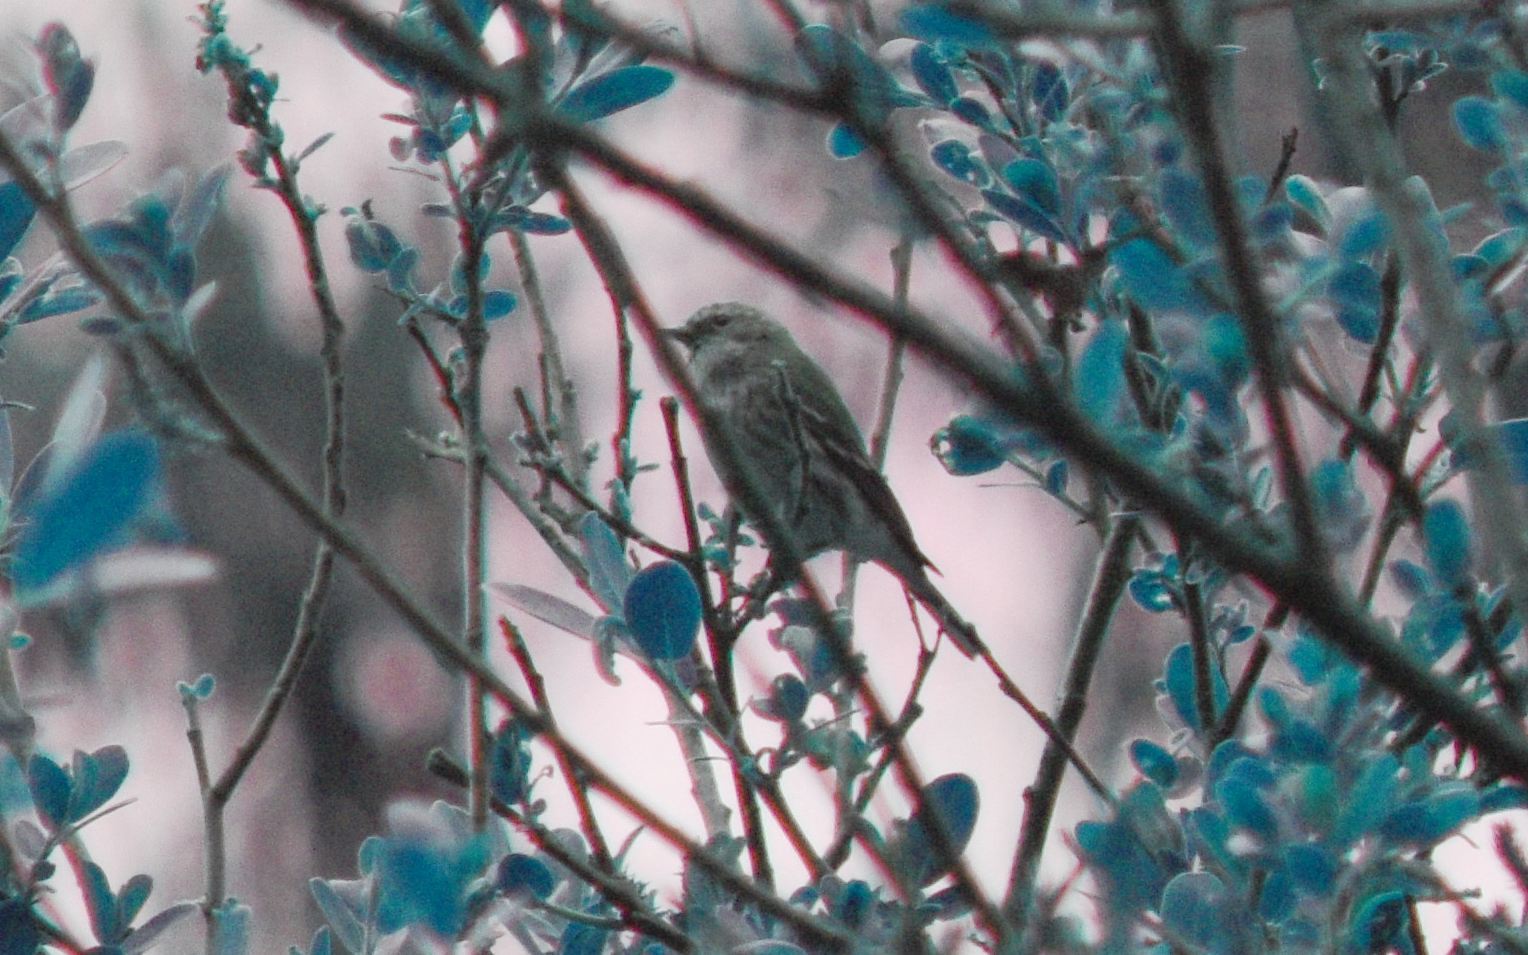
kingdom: Animalia
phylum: Chordata
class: Aves
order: Passeriformes
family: Fringillidae
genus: Spinus
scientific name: Spinus pinus
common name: Pine siskin
